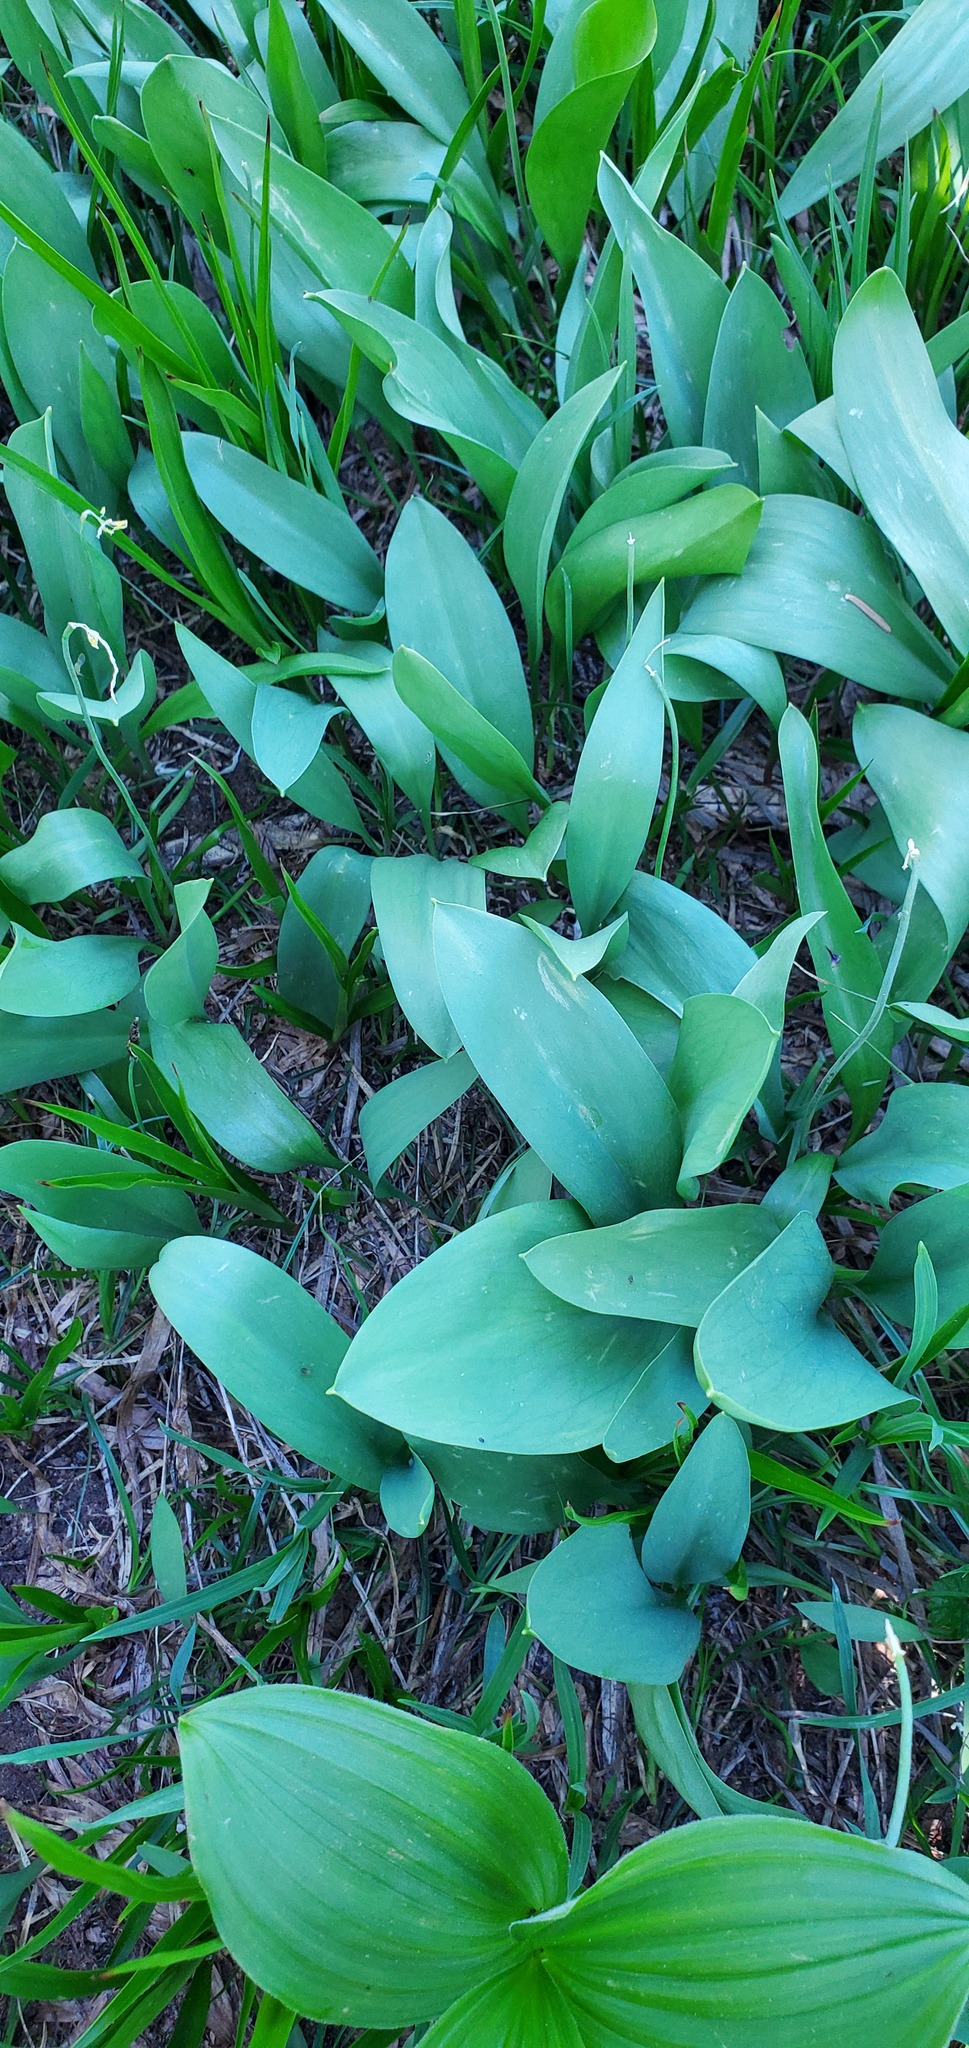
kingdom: Plantae
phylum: Tracheophyta
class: Liliopsida
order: Liliales
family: Liliaceae
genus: Erythronium
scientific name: Erythronium grandiflorum
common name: Avalanche-lily
